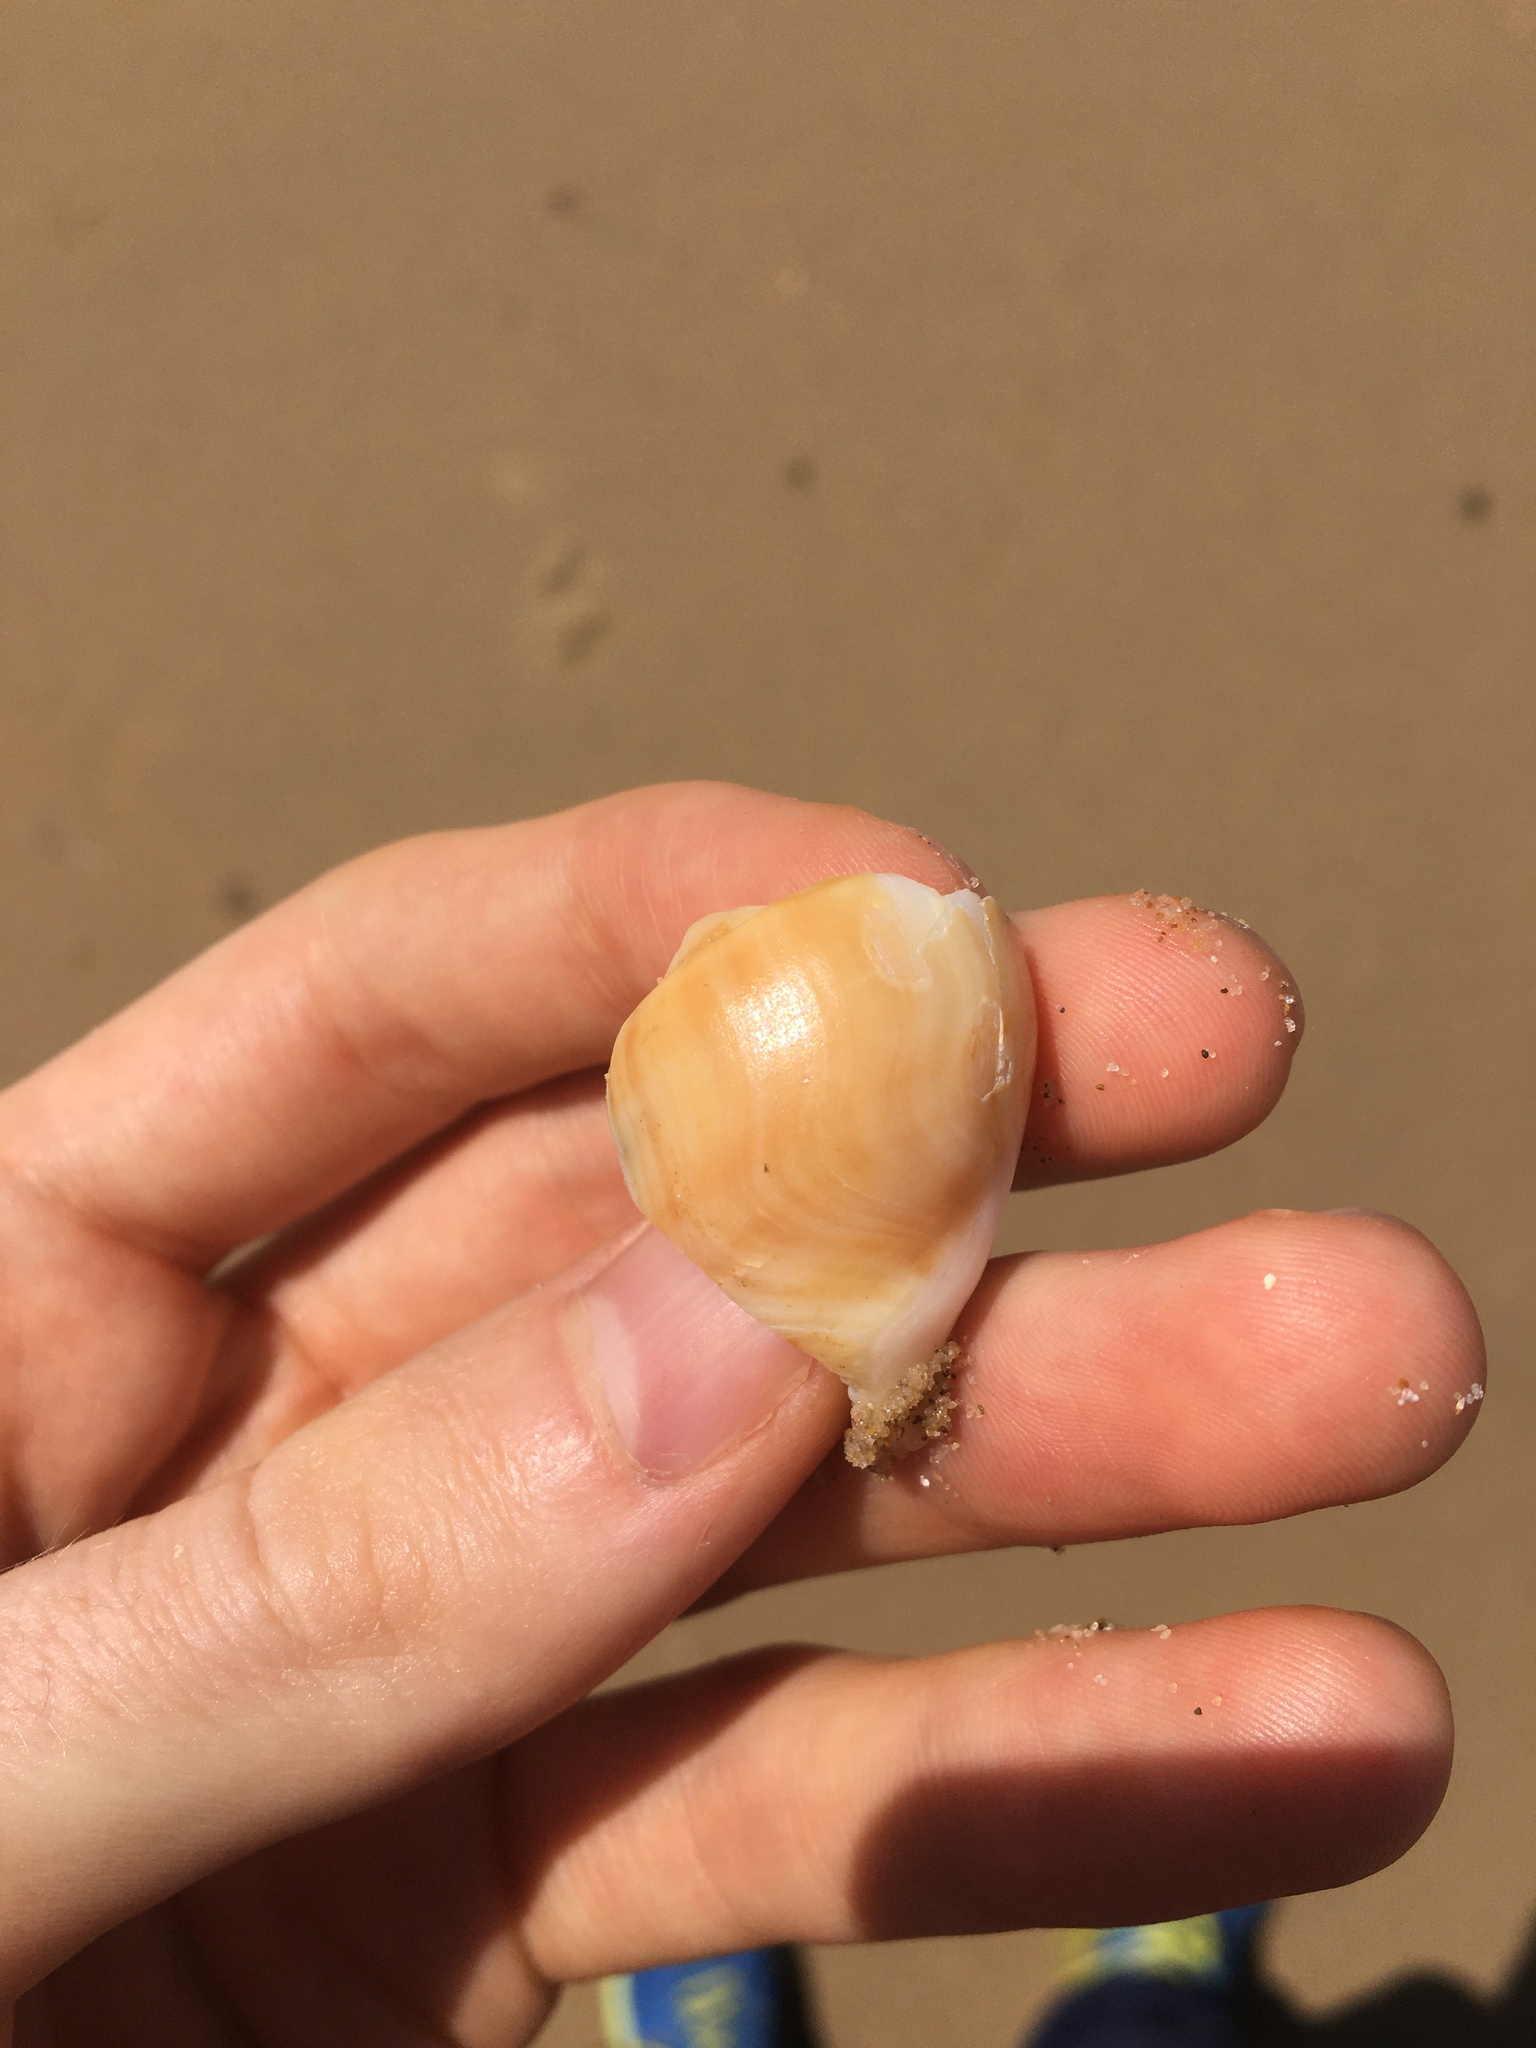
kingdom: Animalia
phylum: Mollusca
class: Gastropoda
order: Littorinimorpha
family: Struthiolariidae
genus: Tylospira
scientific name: Tylospira scutulata
